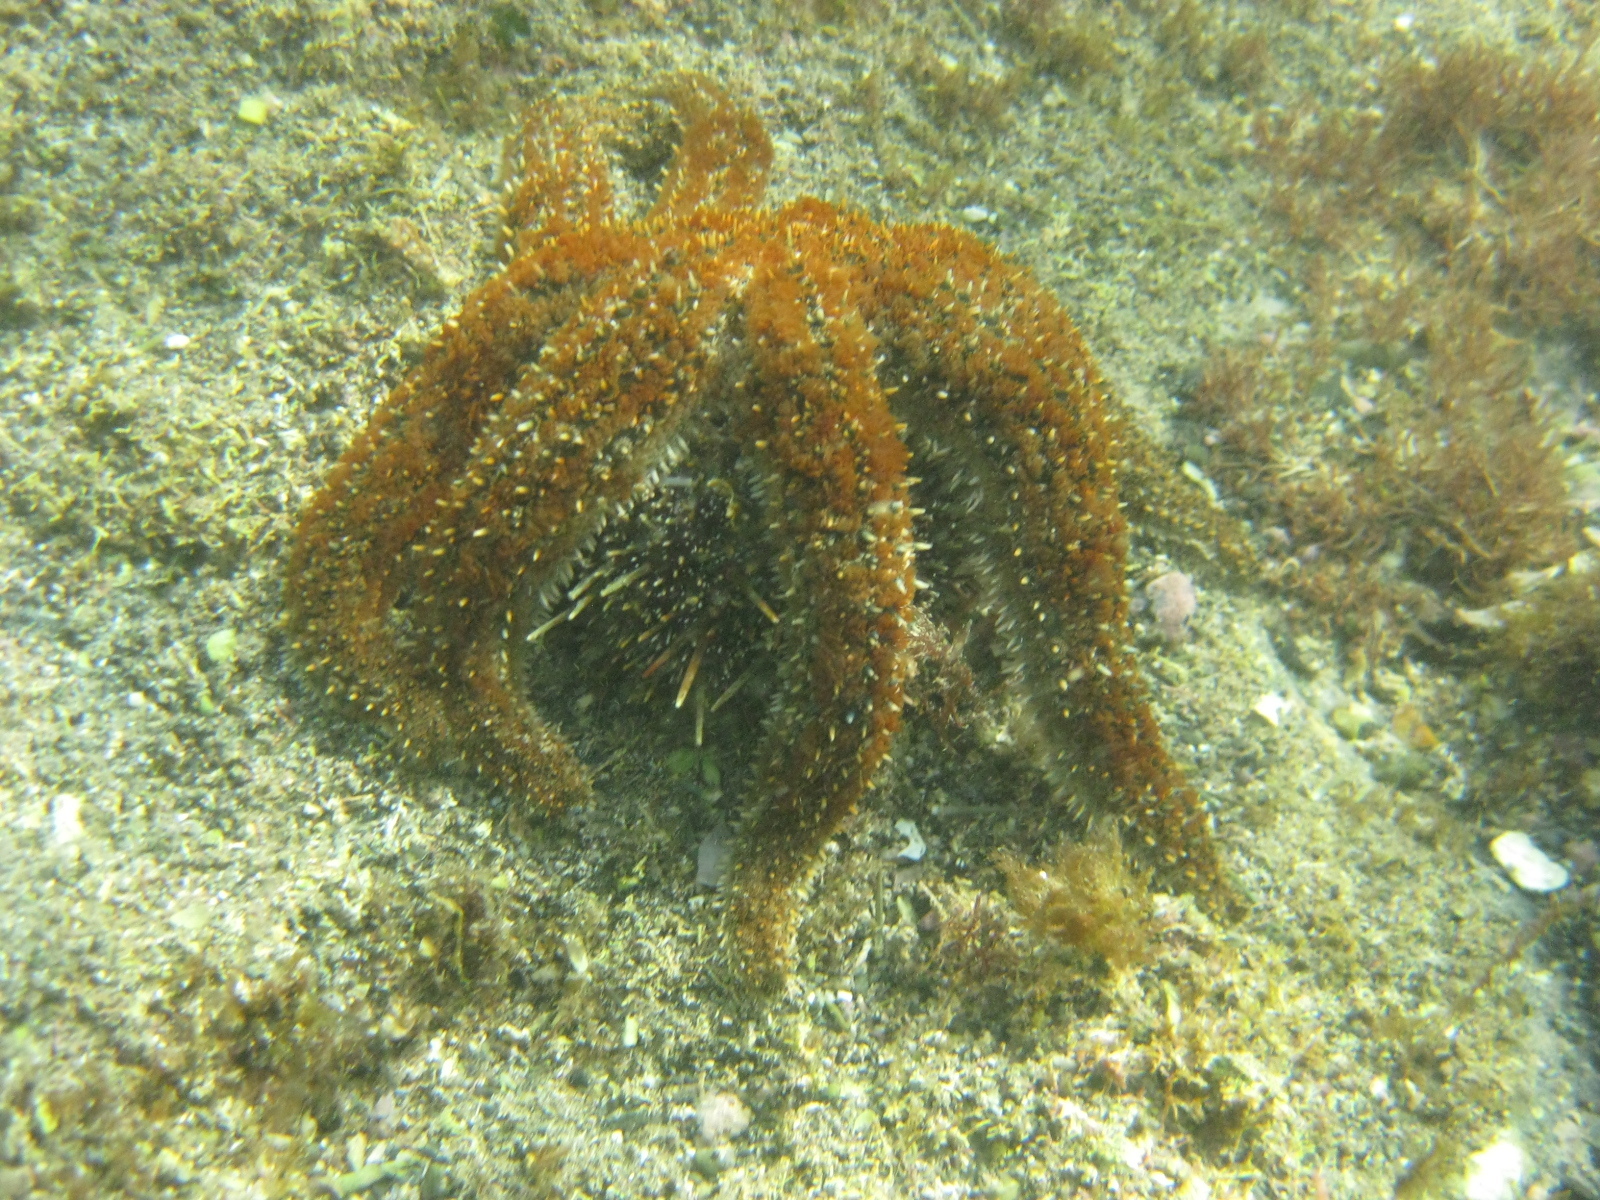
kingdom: Animalia
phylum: Echinodermata
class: Asteroidea
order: Forcipulatida
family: Asteriidae
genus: Coscinasterias
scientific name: Coscinasterias muricata
